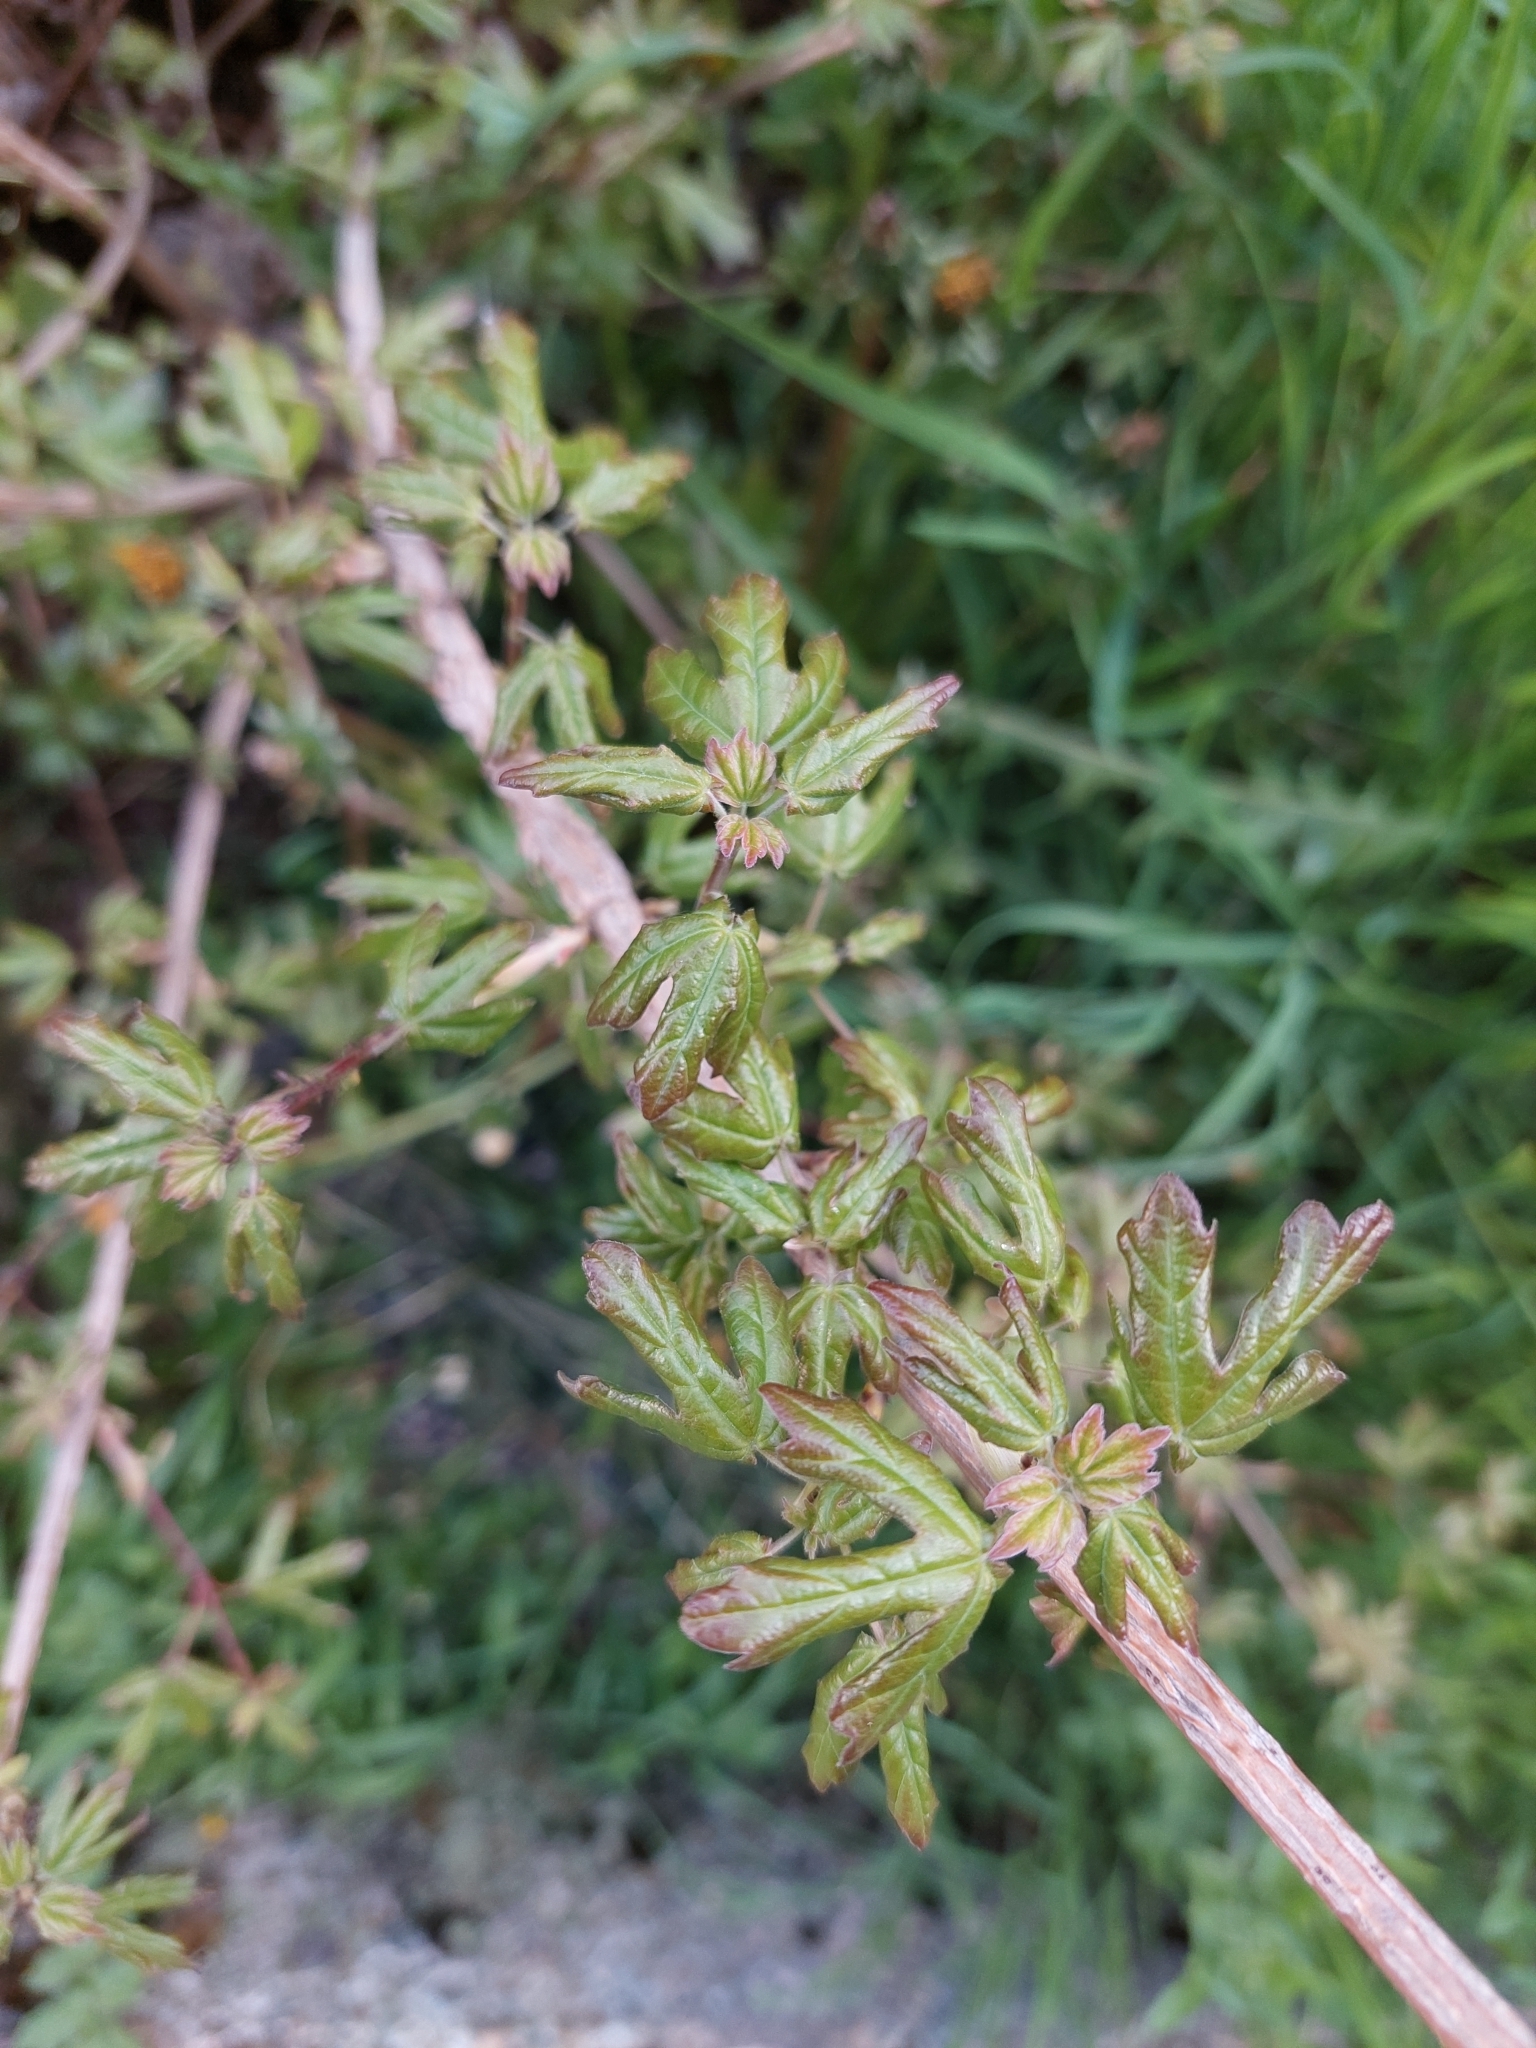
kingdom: Plantae
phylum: Tracheophyta
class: Magnoliopsida
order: Sapindales
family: Sapindaceae
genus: Acer
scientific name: Acer campestre
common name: Field maple
